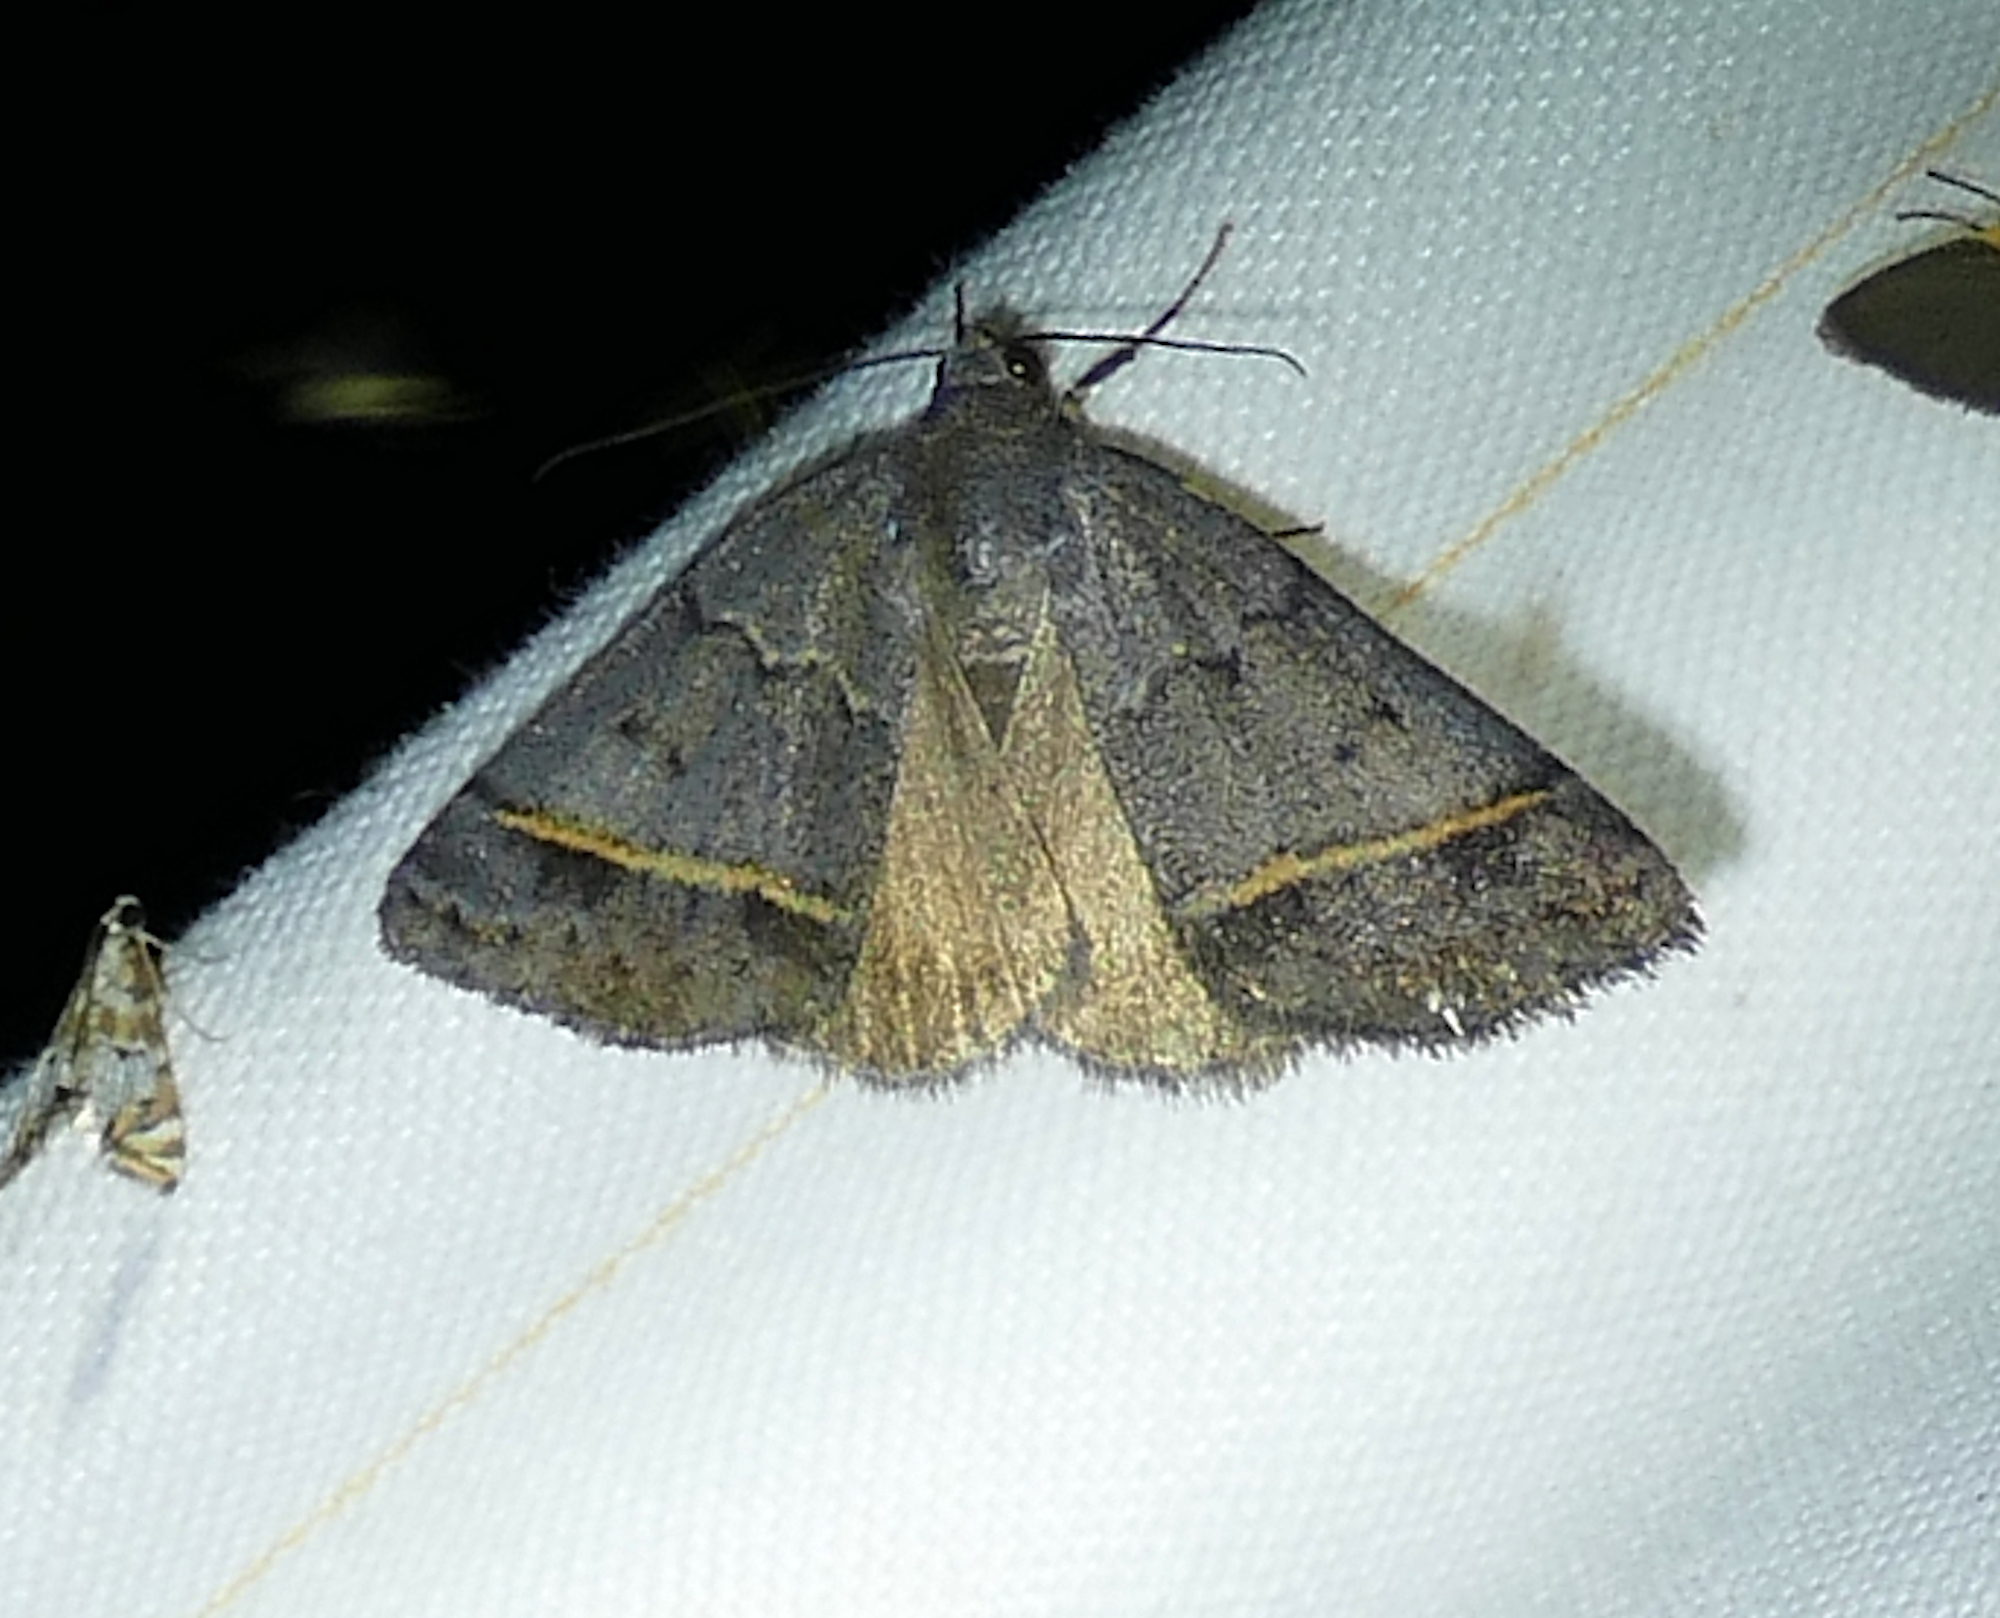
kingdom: Animalia
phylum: Arthropoda
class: Insecta
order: Lepidoptera
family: Erebidae
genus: Ptichodis
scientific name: Ptichodis bucetum
